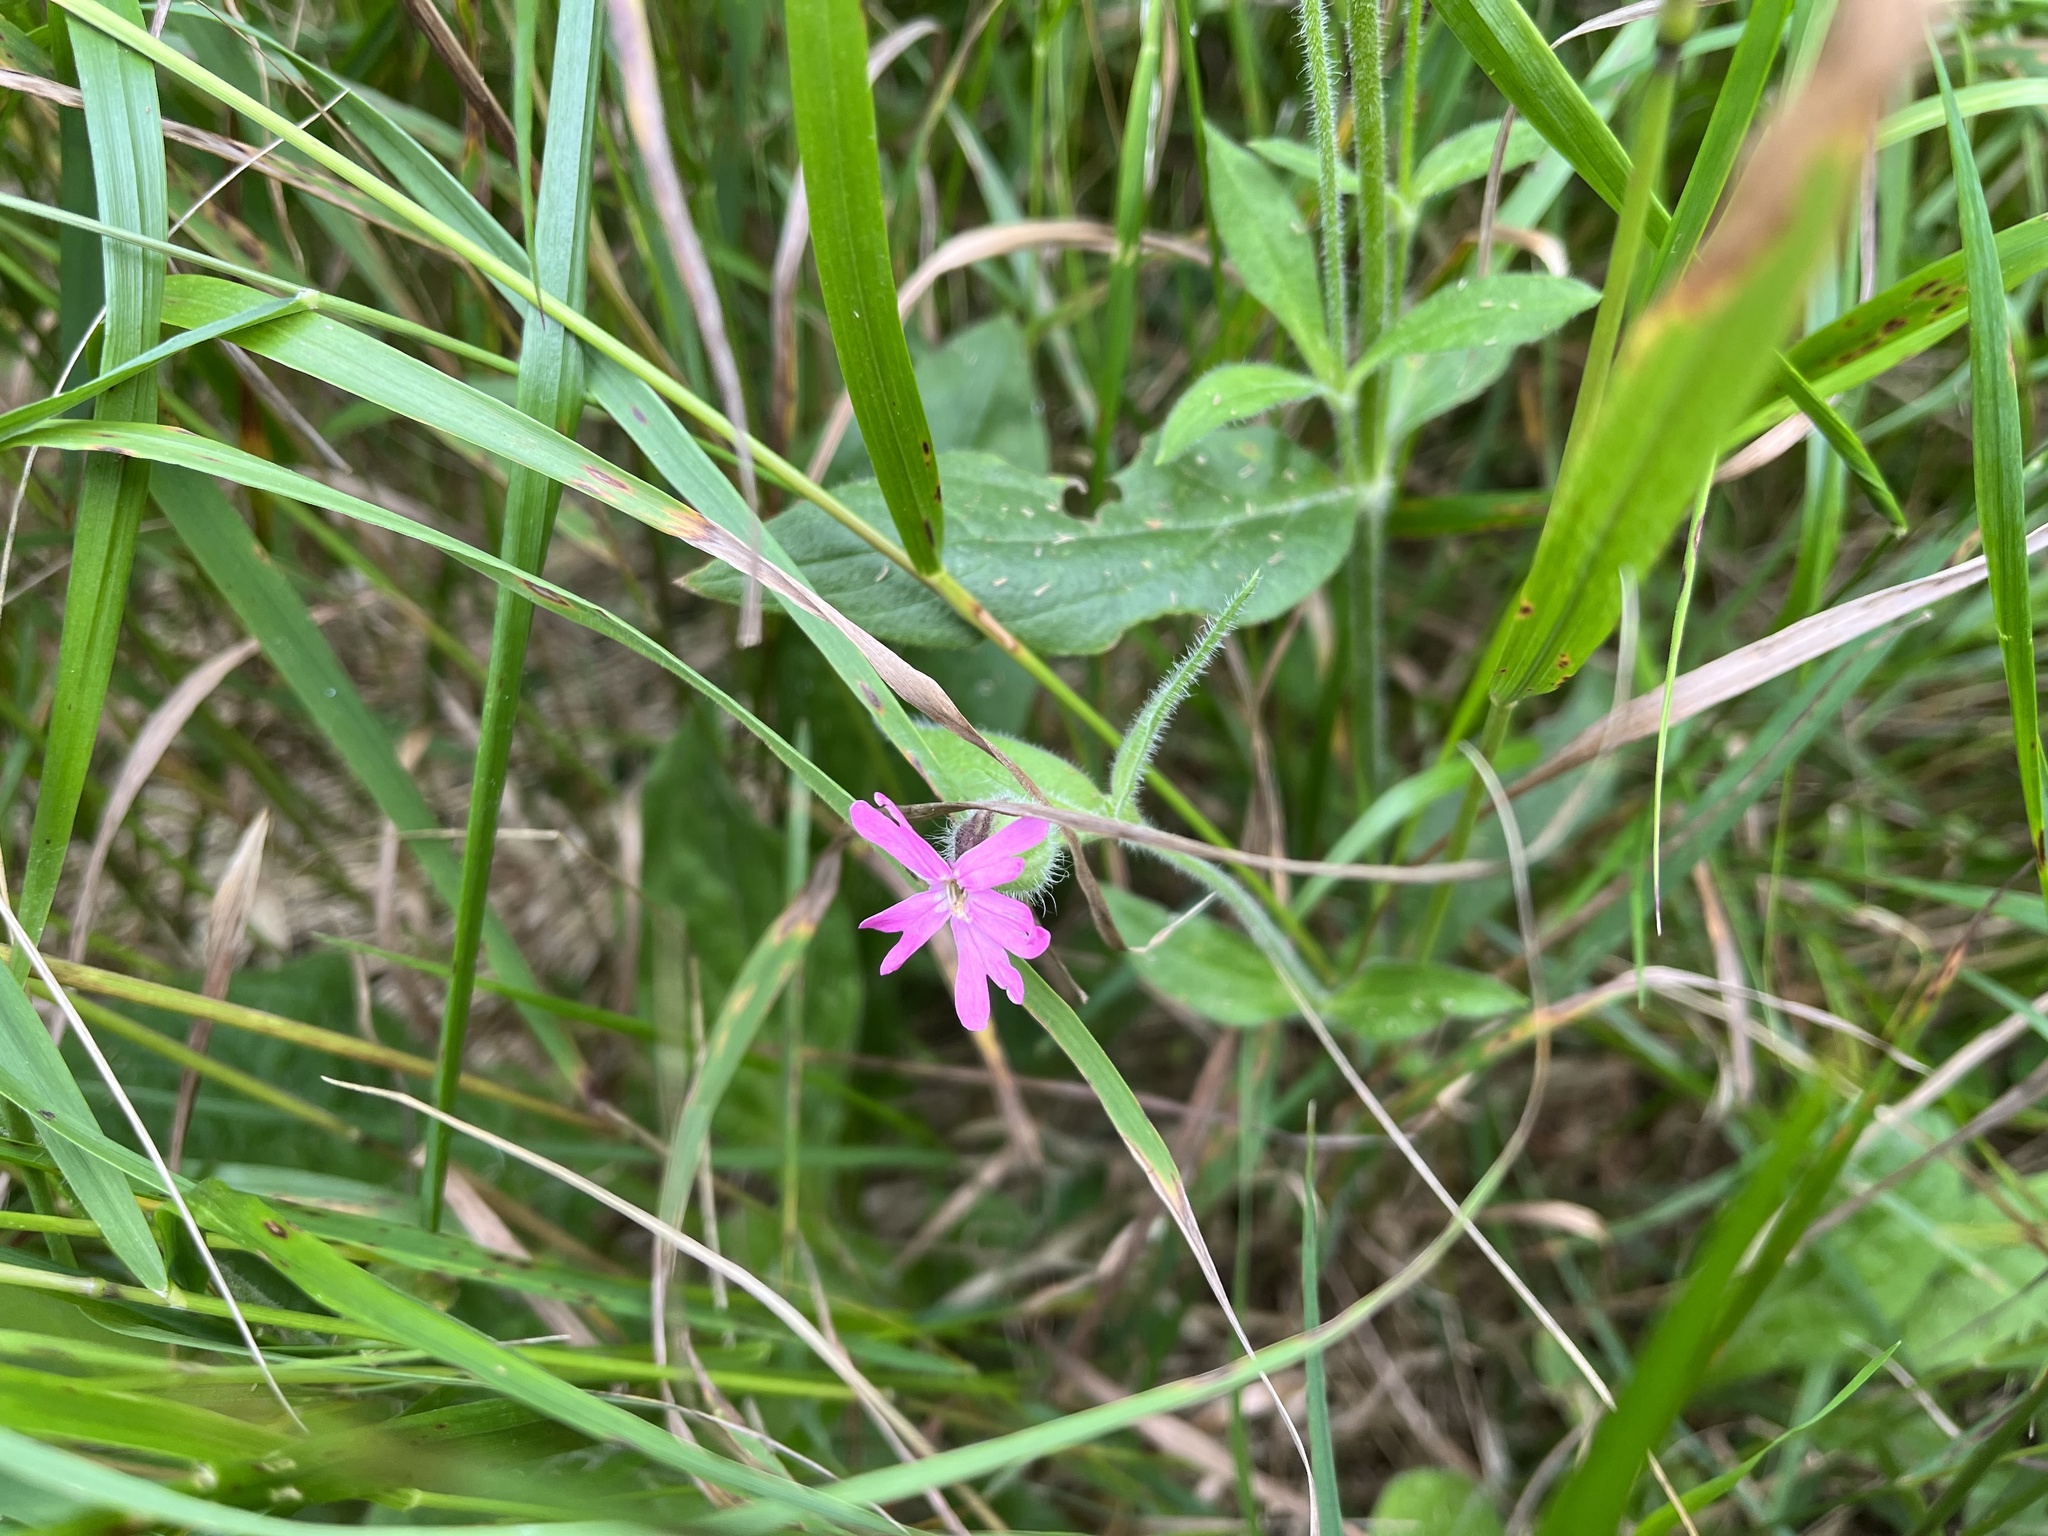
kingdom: Plantae
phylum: Tracheophyta
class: Magnoliopsida
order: Caryophyllales
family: Caryophyllaceae
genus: Silene
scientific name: Silene dioica
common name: Red campion
